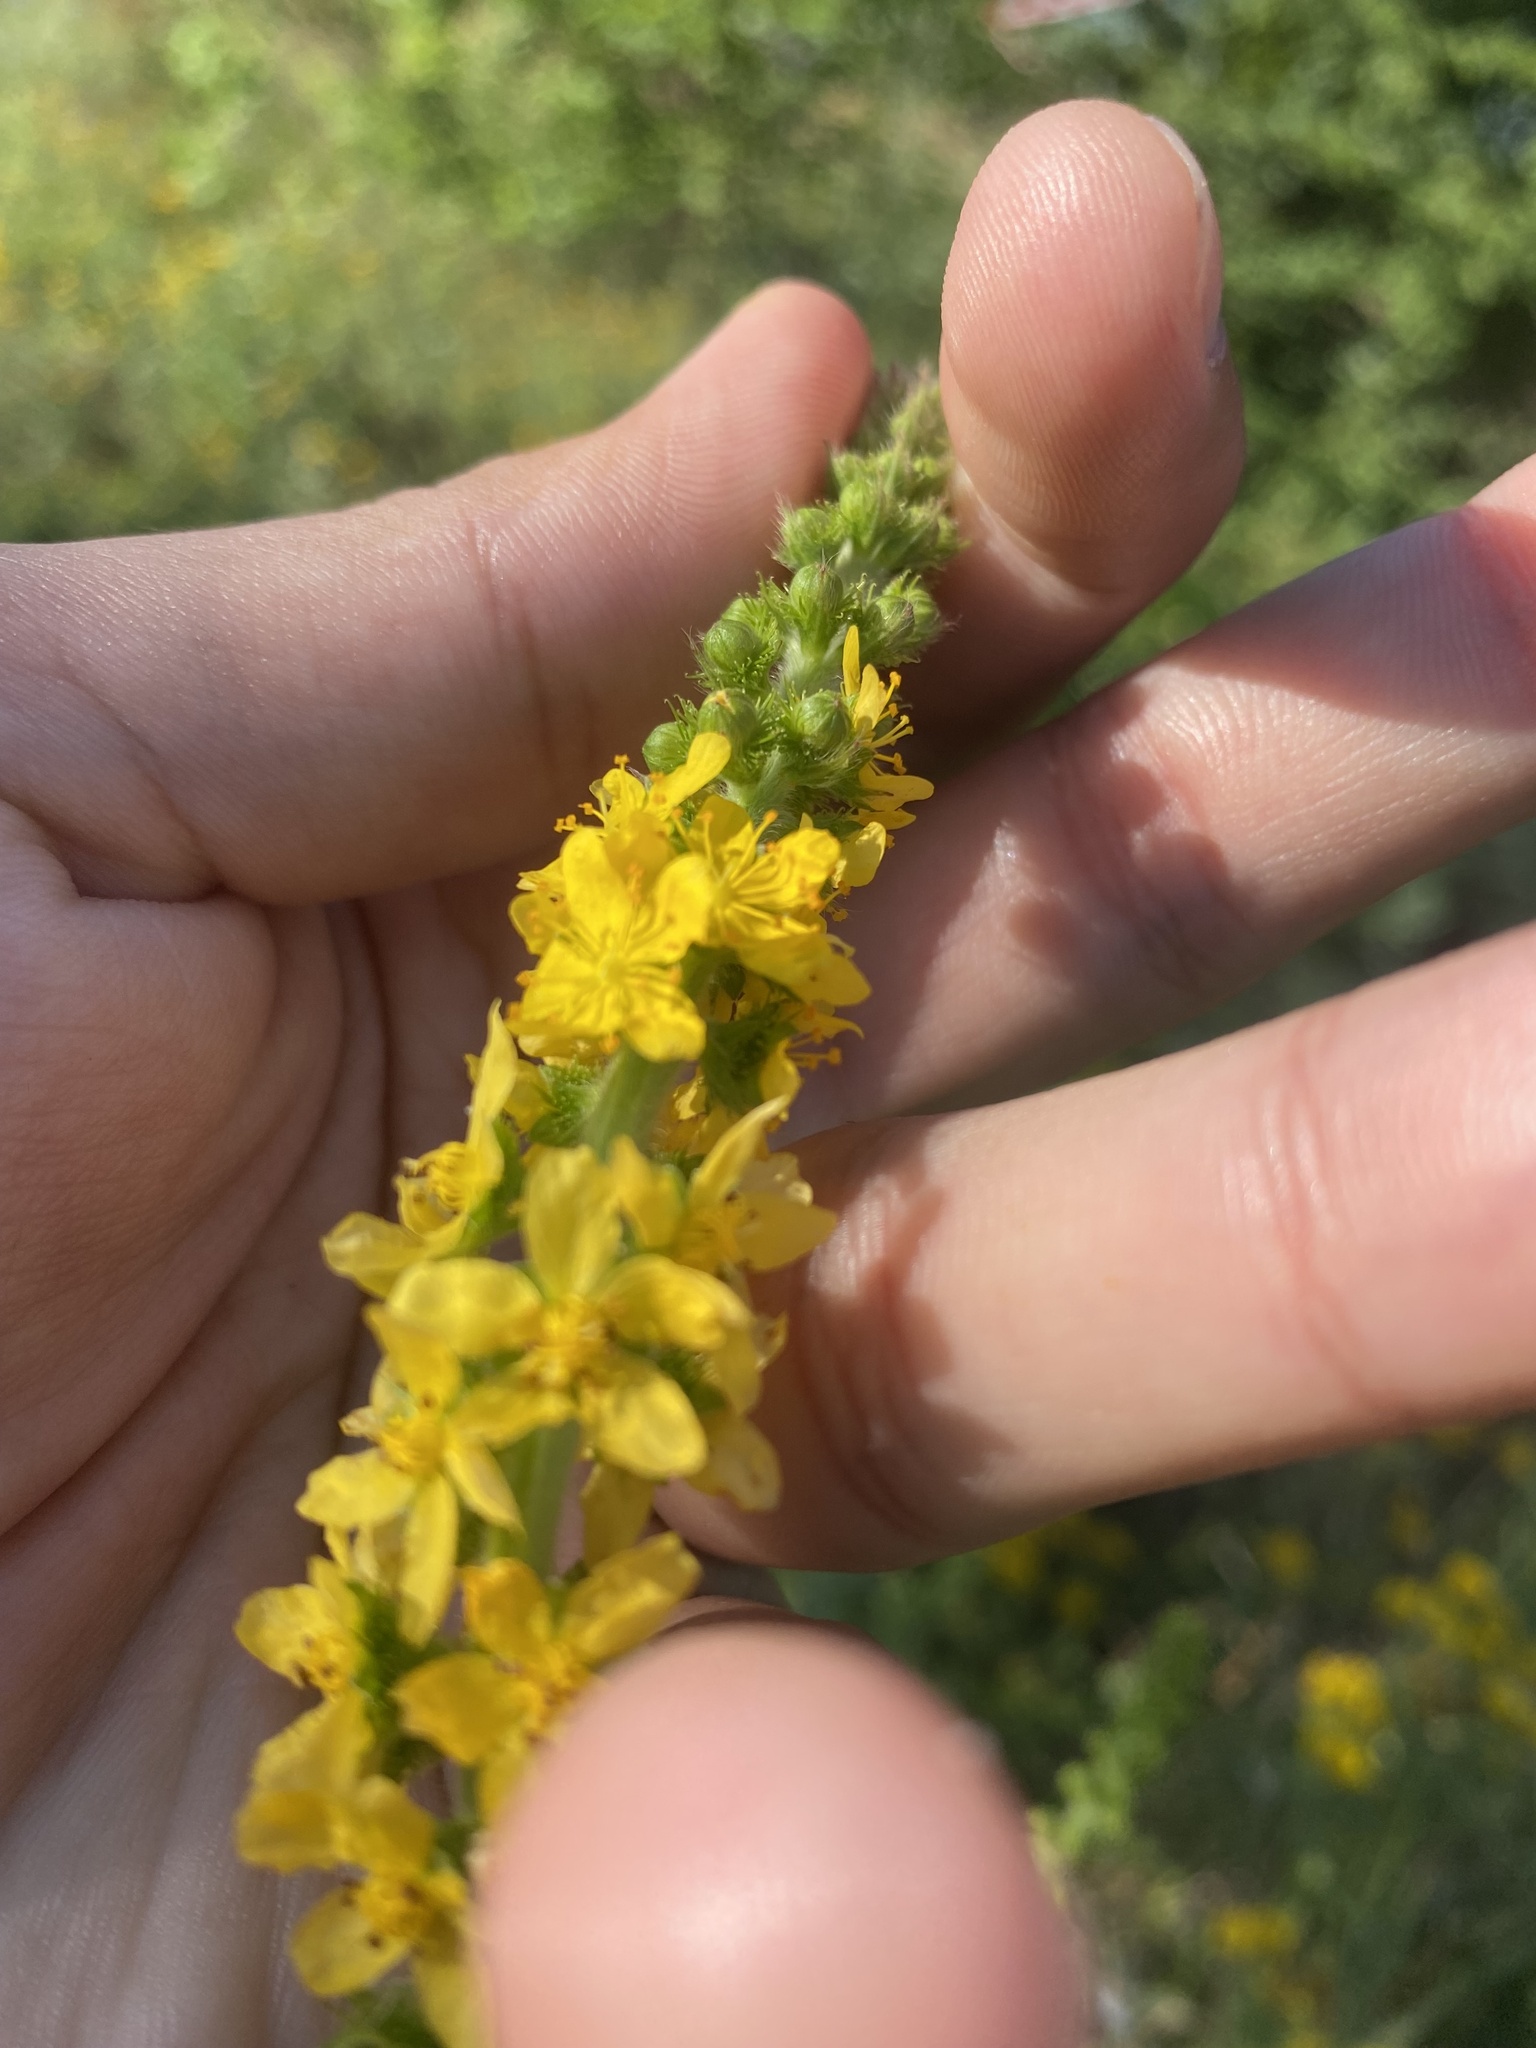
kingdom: Plantae
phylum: Tracheophyta
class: Magnoliopsida
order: Rosales
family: Rosaceae
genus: Agrimonia
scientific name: Agrimonia eupatoria
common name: Agrimony
